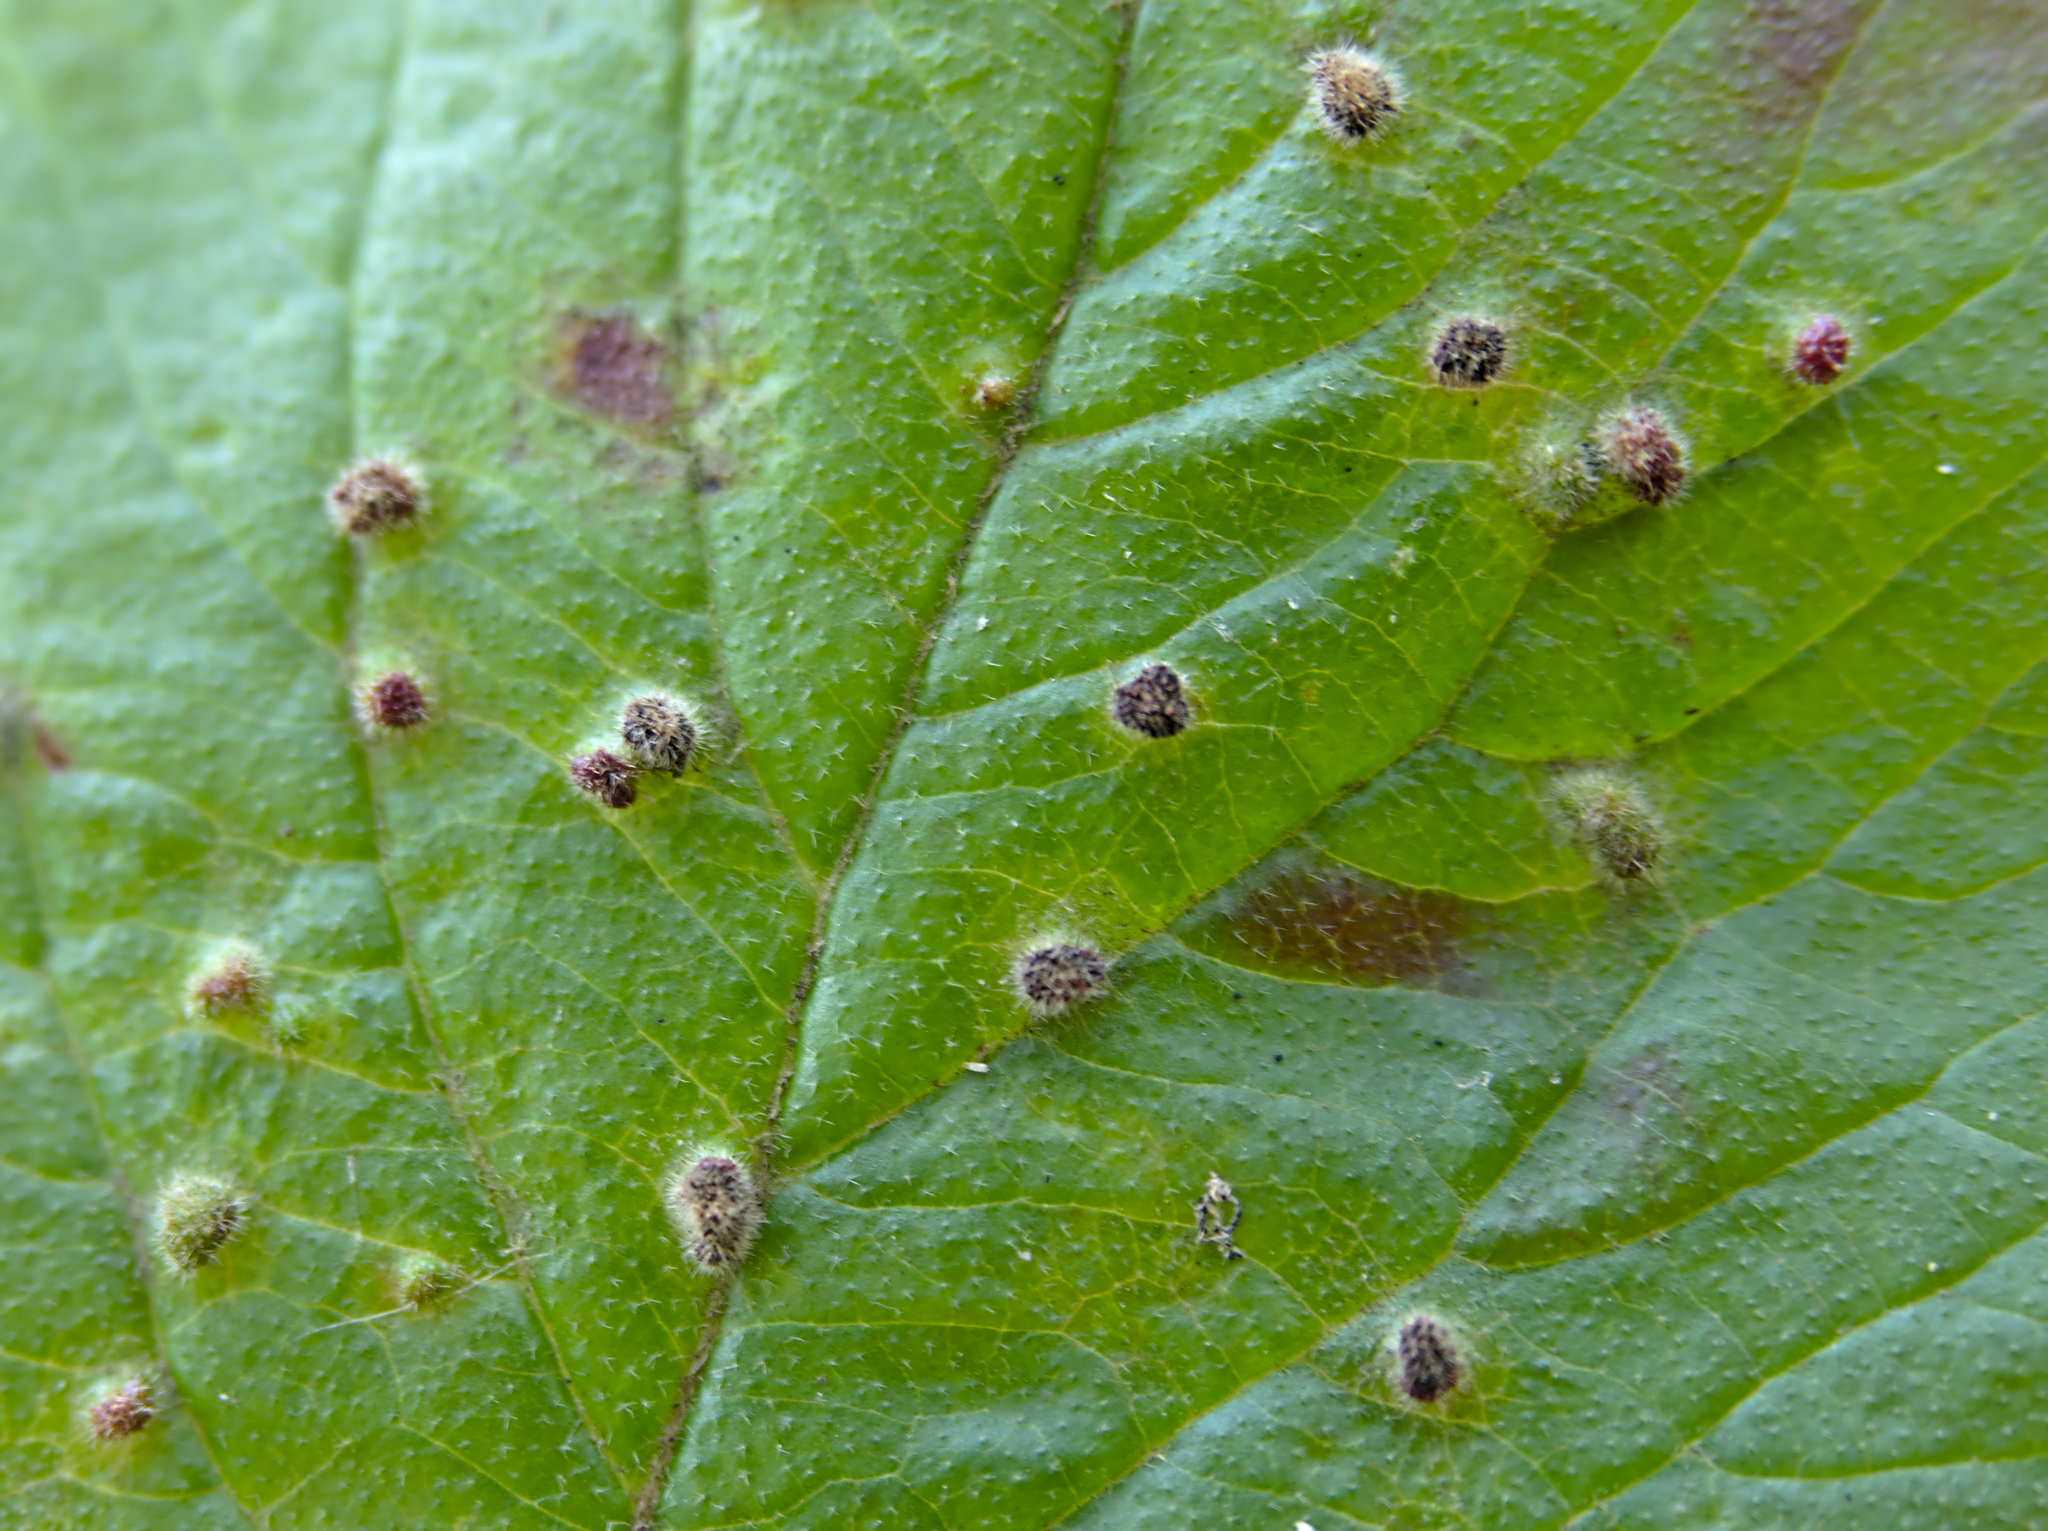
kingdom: Animalia
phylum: Arthropoda
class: Arachnida
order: Trombidiformes
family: Eriophyidae
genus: Eriophyes
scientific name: Eriophyes viburni
